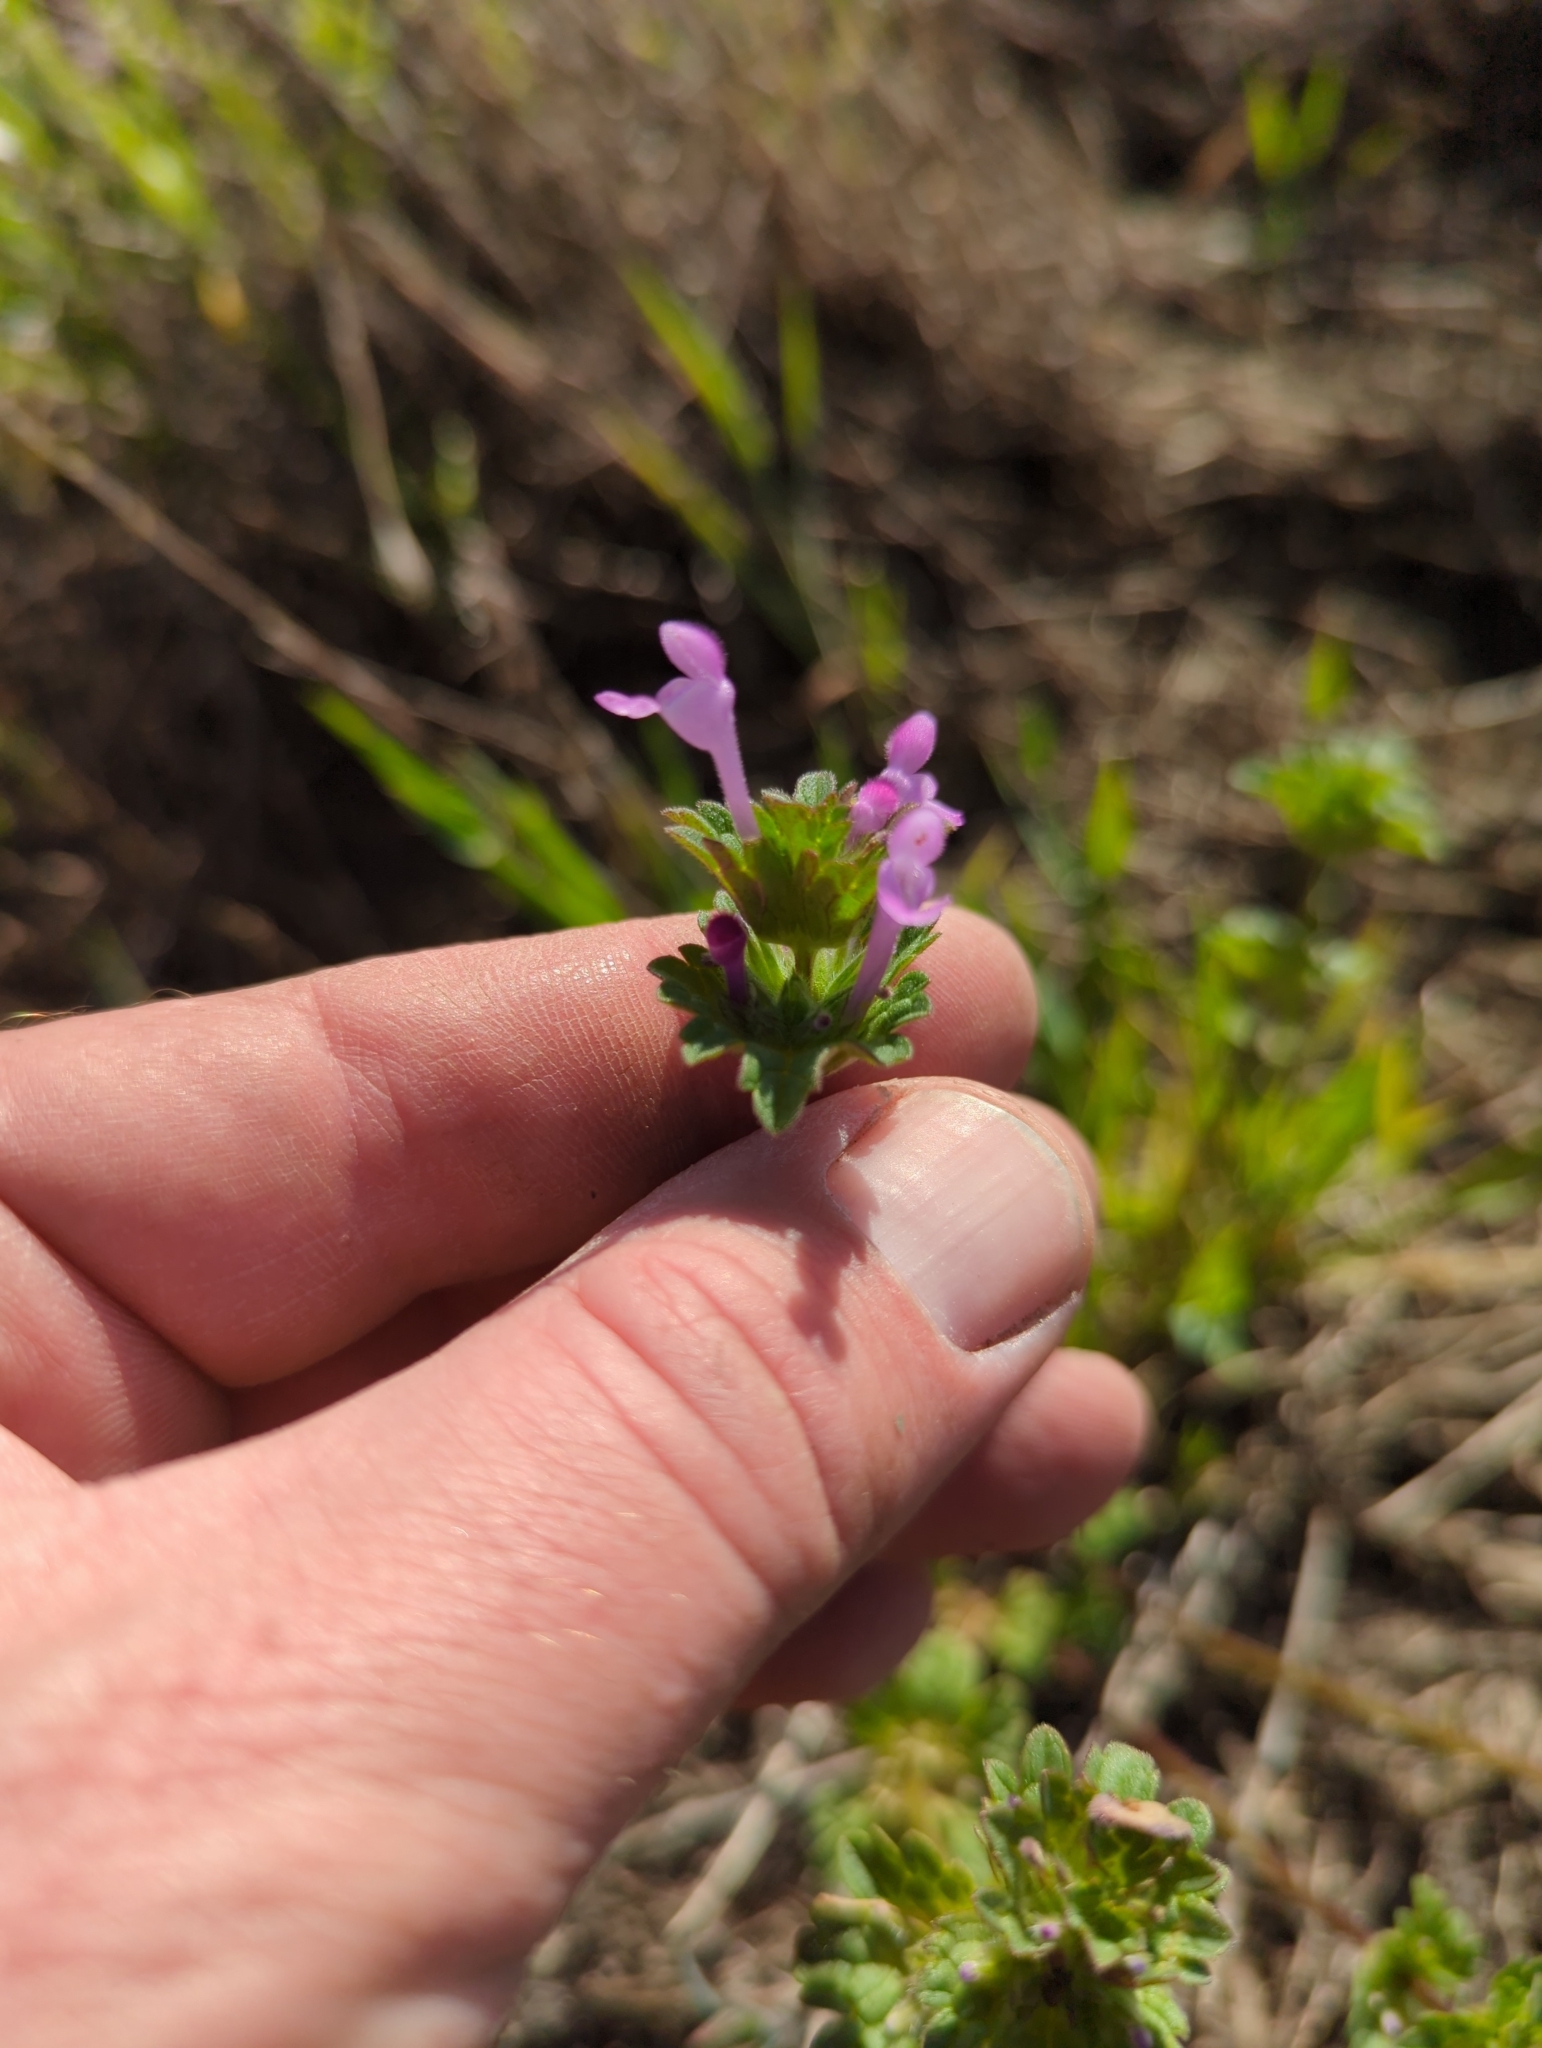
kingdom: Plantae
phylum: Tracheophyta
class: Magnoliopsida
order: Lamiales
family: Lamiaceae
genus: Lamium
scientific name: Lamium amplexicaule
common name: Henbit dead-nettle
